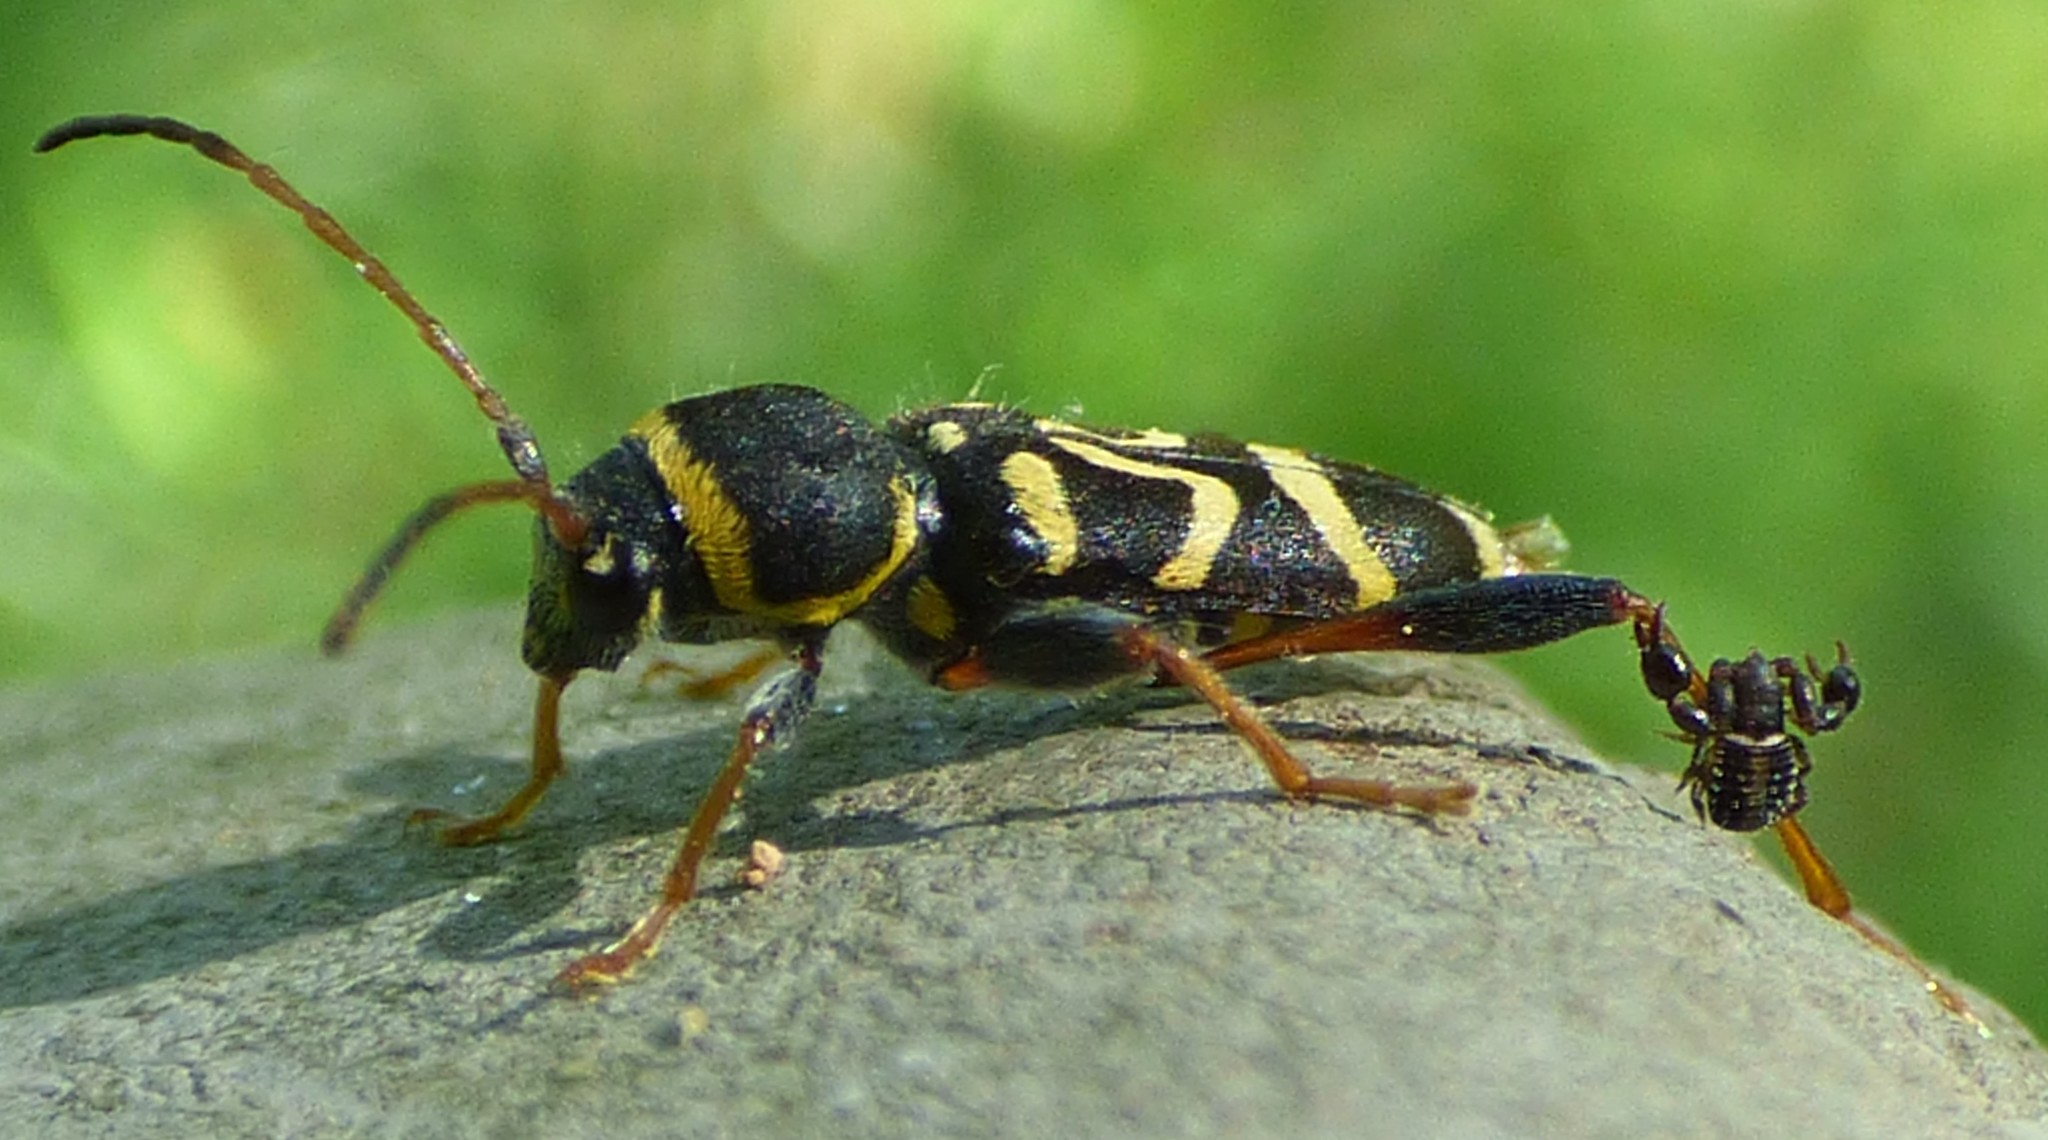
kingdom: Animalia
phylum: Arthropoda
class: Insecta
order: Coleoptera
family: Cerambycidae
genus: Clytus
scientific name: Clytus ruricola
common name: Round-necked longhorn beetle
